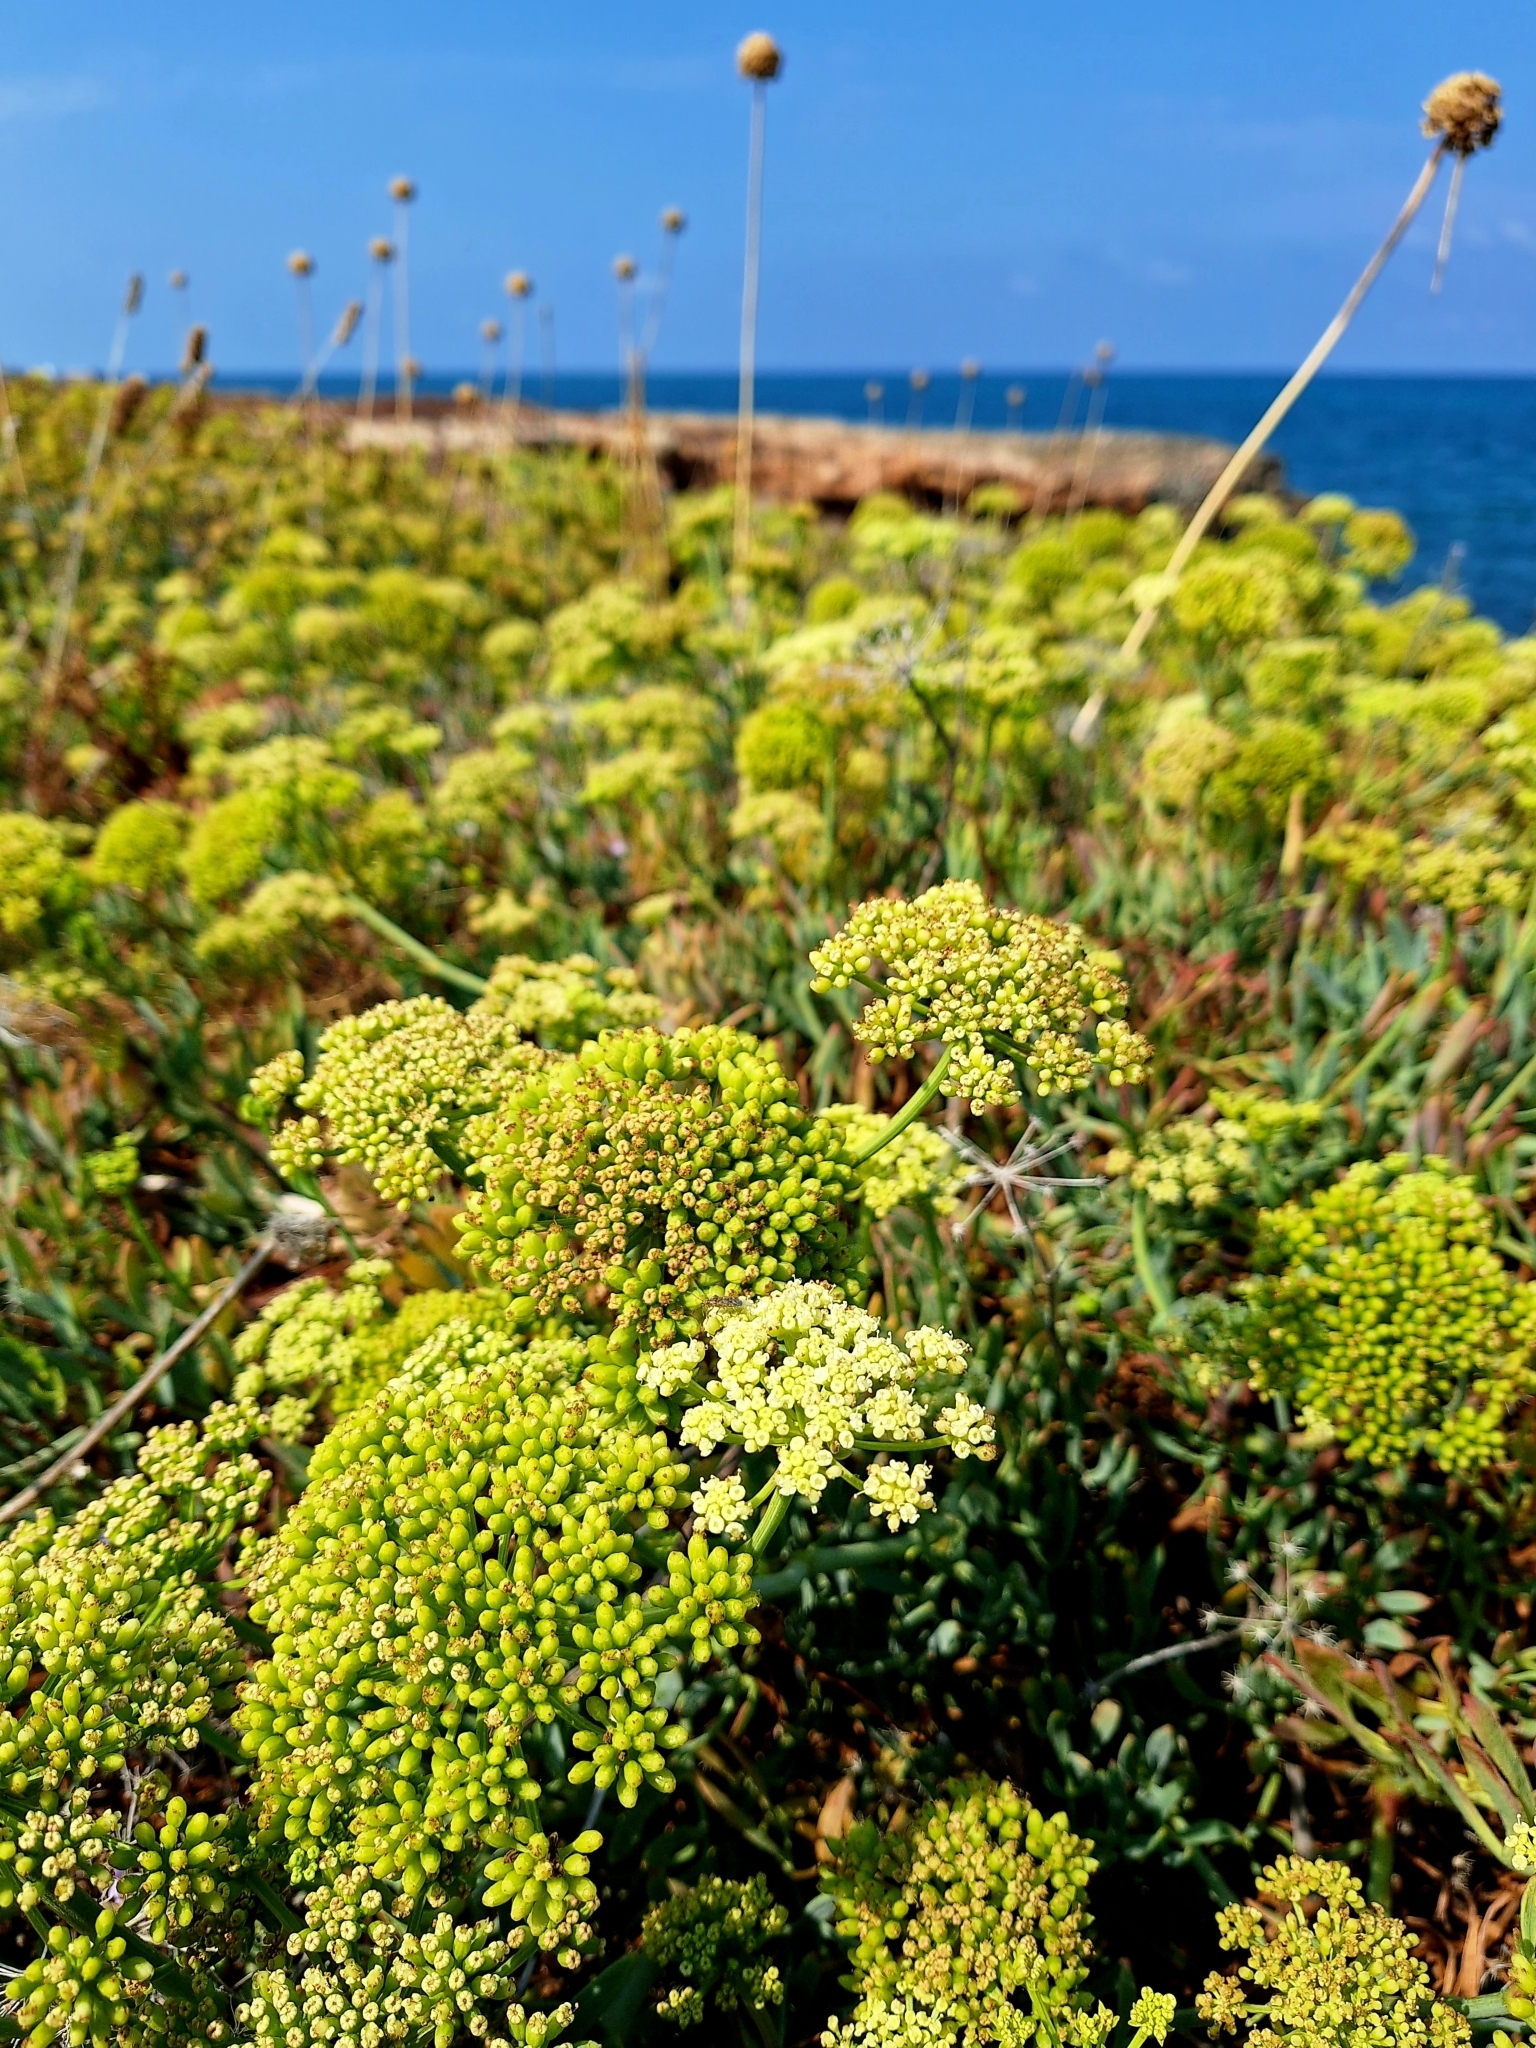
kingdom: Plantae
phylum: Tracheophyta
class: Magnoliopsida
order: Apiales
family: Apiaceae
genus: Crithmum
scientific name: Crithmum maritimum
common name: Rock samphire
